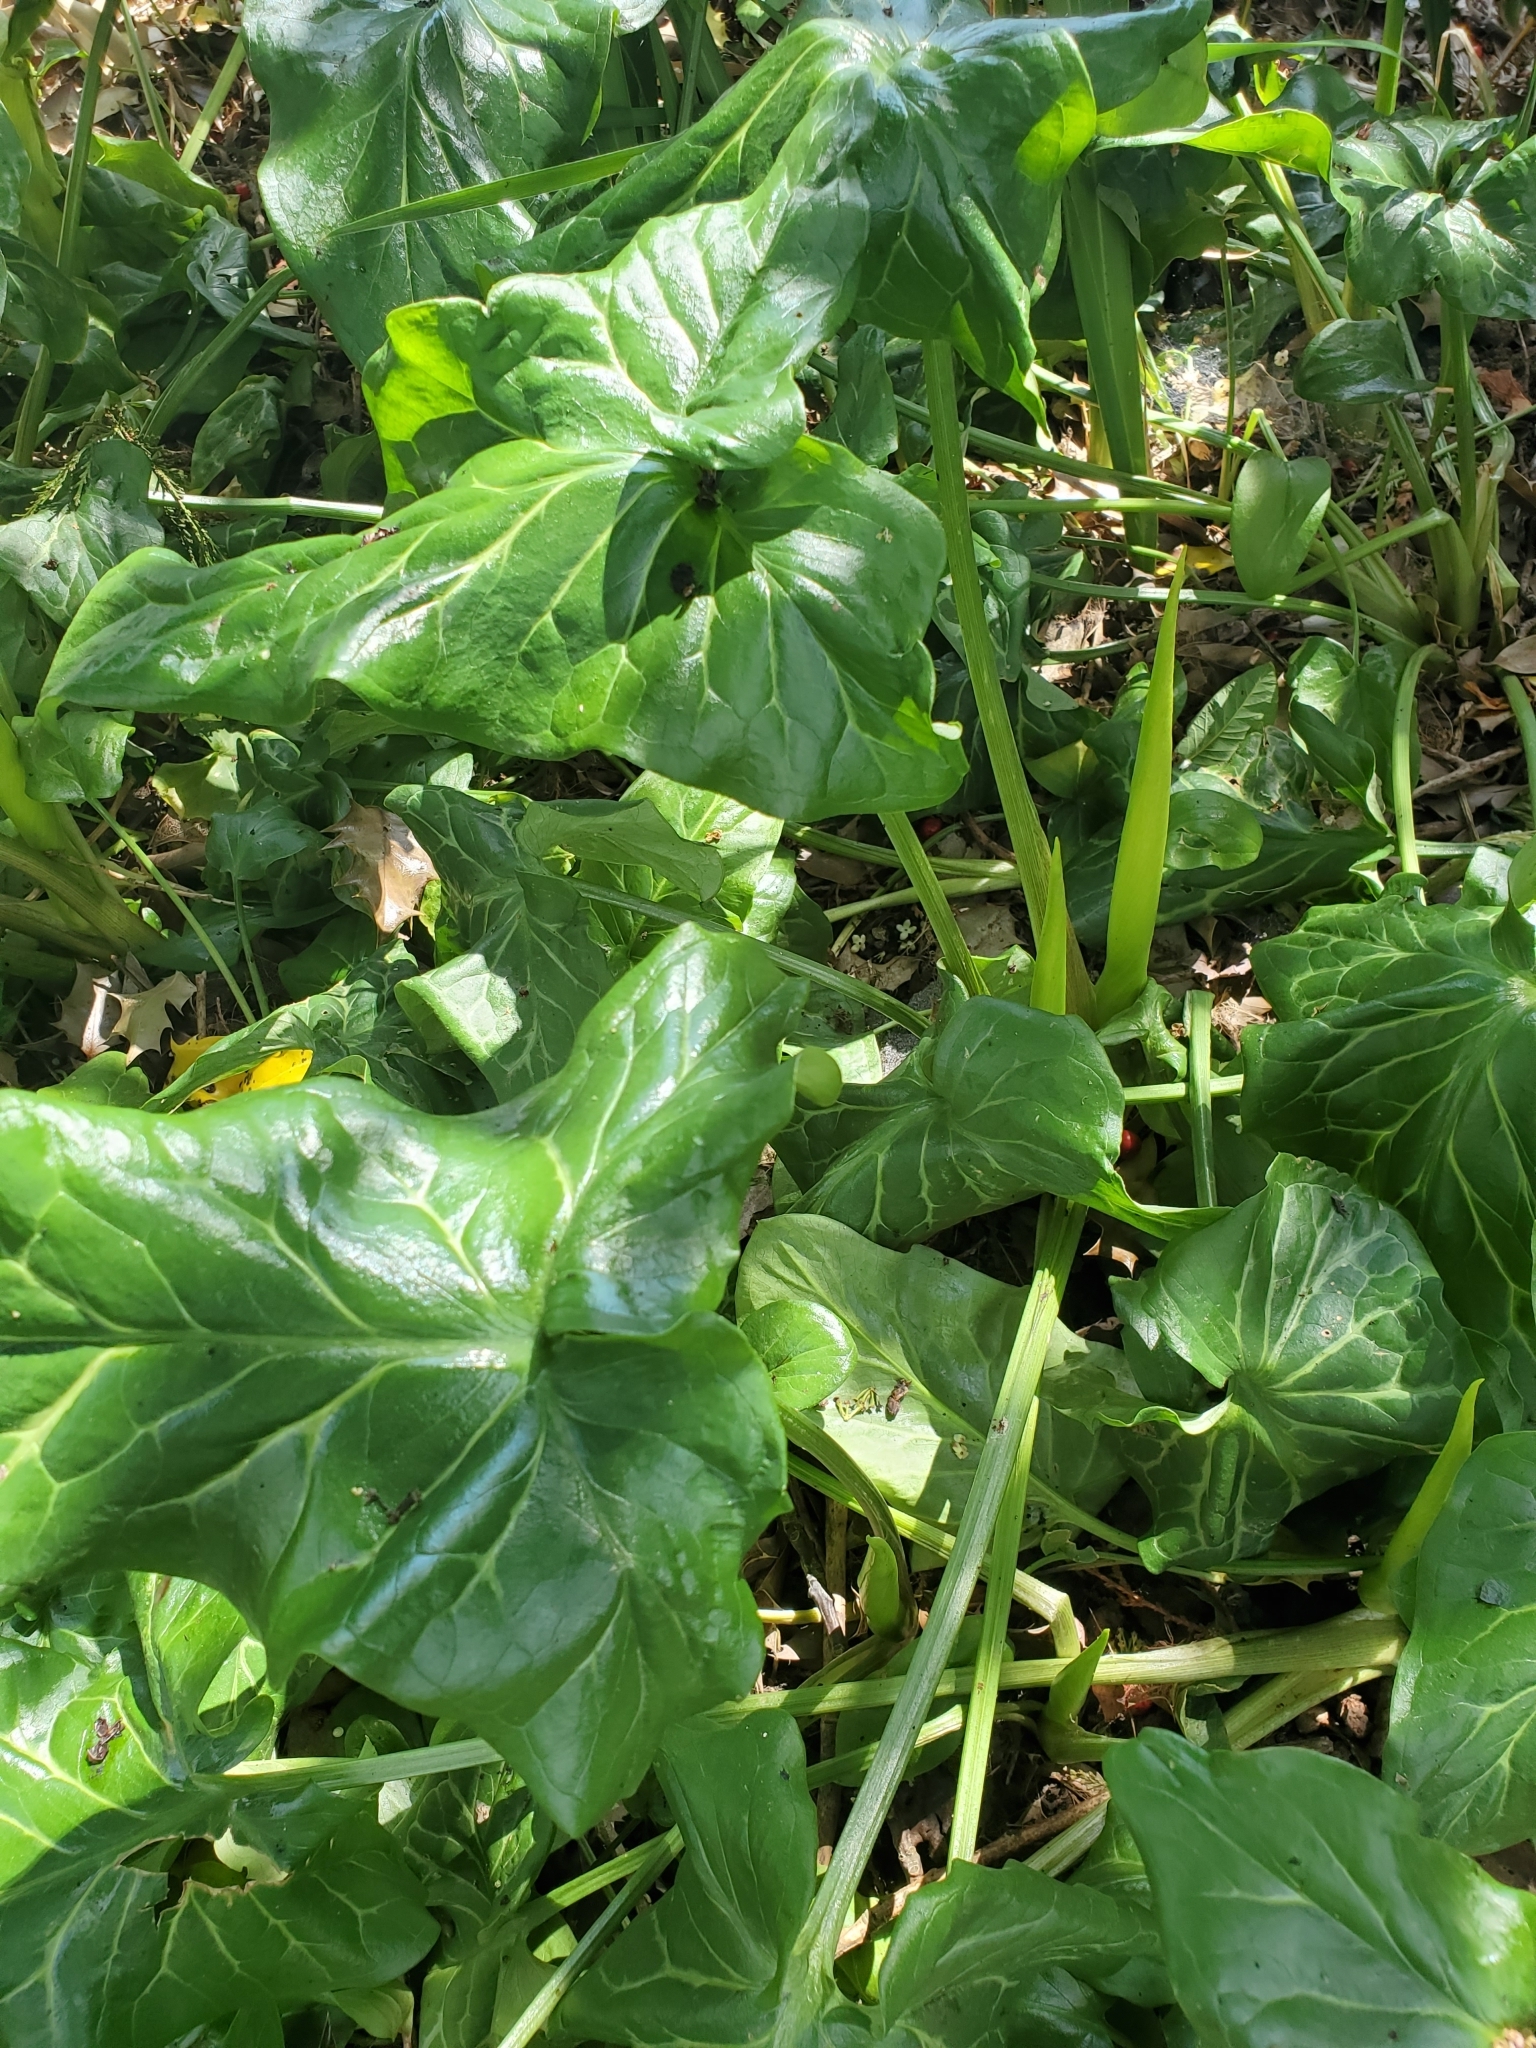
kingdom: Plantae
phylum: Tracheophyta
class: Liliopsida
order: Alismatales
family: Araceae
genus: Arum
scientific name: Arum italicum
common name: Italian lords-and-ladies
